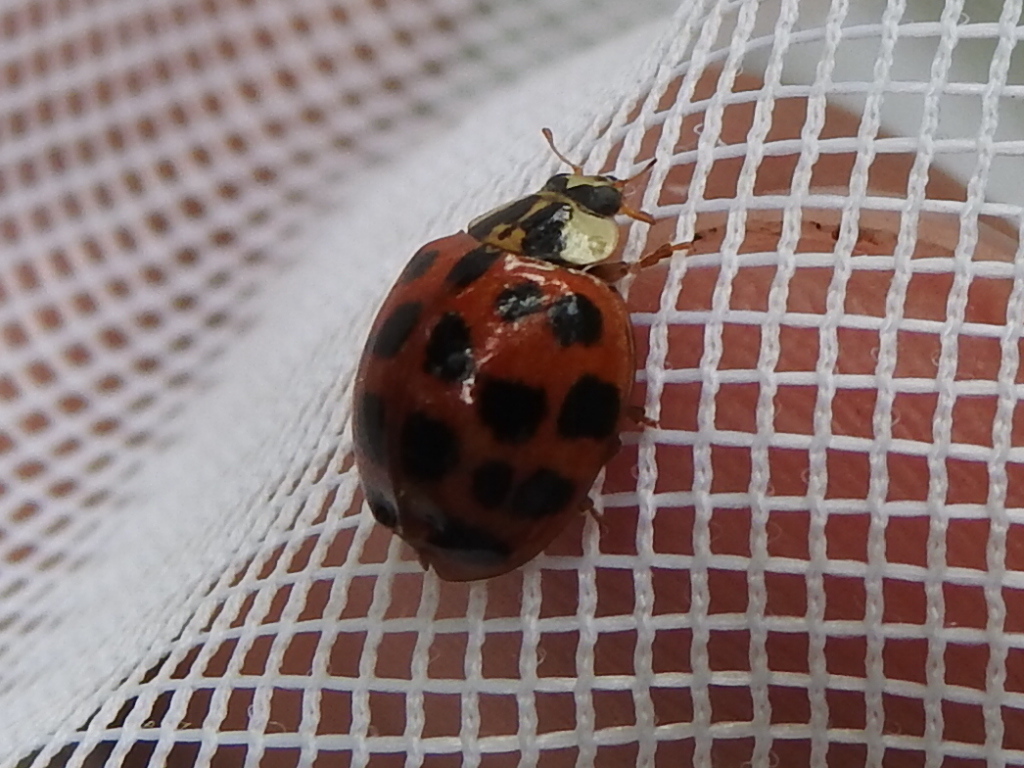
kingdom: Animalia
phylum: Arthropoda
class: Insecta
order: Coleoptera
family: Coccinellidae
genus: Harmonia
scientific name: Harmonia axyridis
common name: Harlequin ladybird
